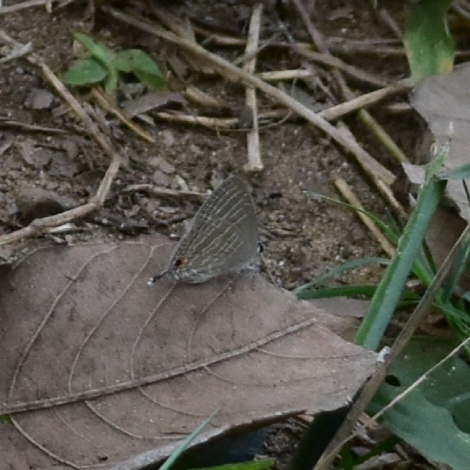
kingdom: Animalia
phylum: Arthropoda
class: Insecta
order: Lepidoptera
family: Lycaenidae
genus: Jamides
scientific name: Jamides celeno
